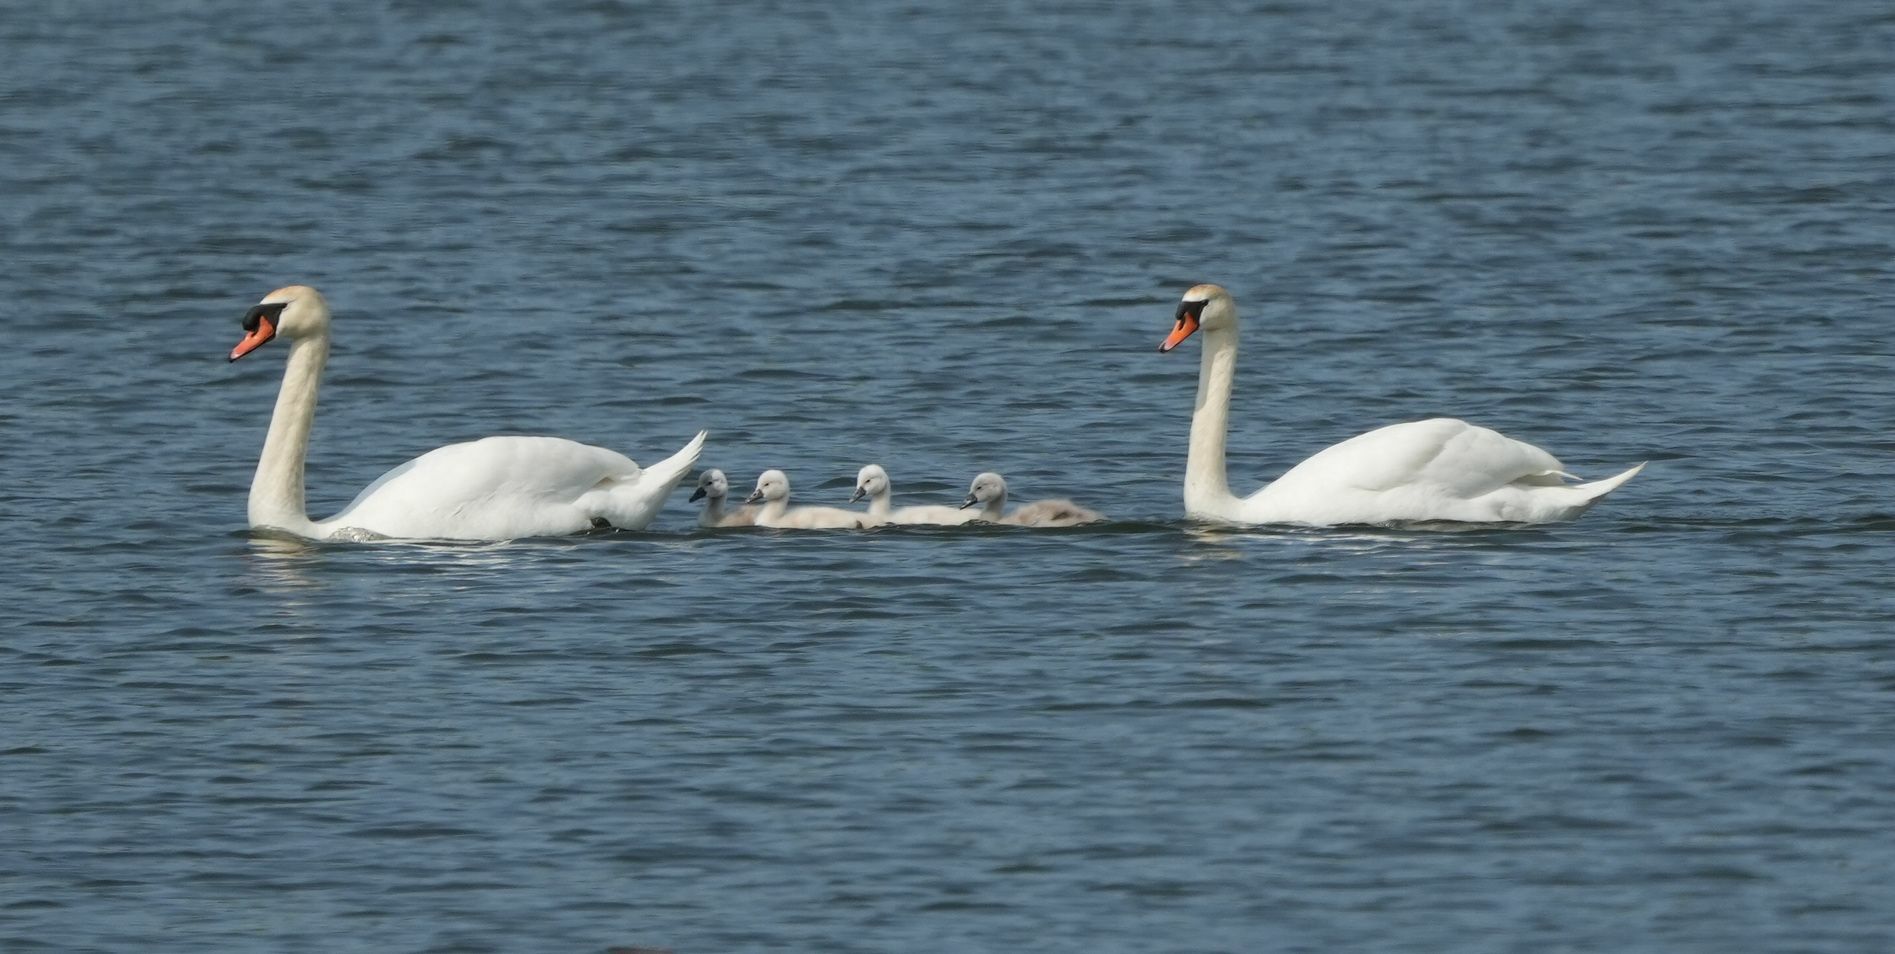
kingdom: Animalia
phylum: Chordata
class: Aves
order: Anseriformes
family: Anatidae
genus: Cygnus
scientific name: Cygnus olor
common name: Mute swan
